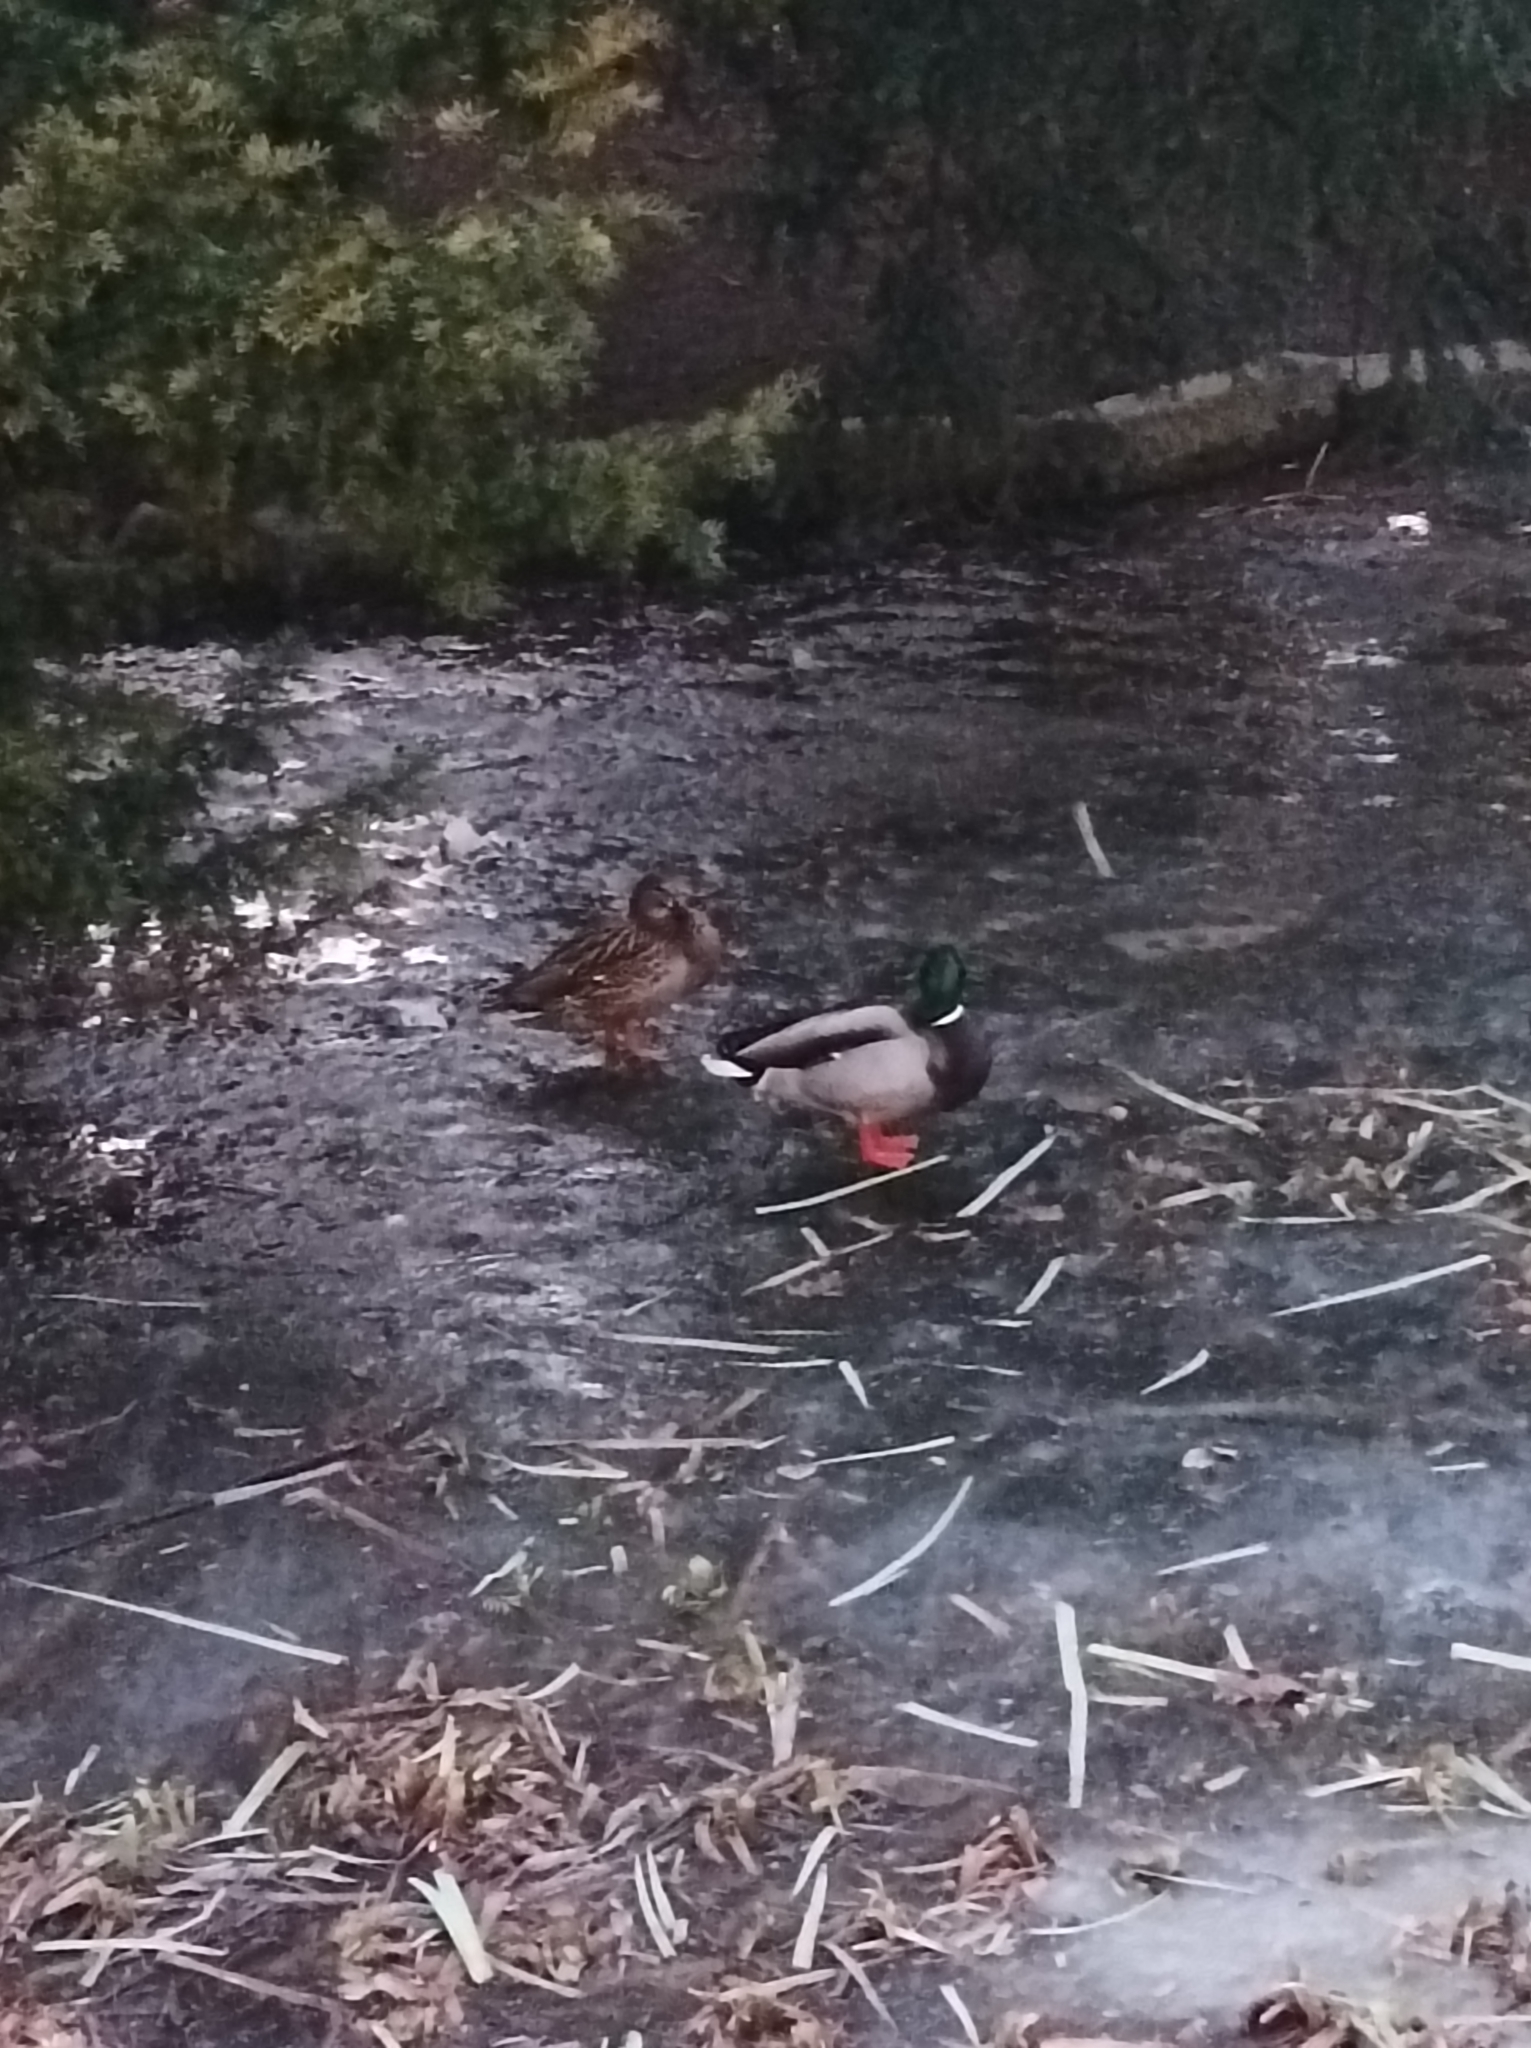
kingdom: Animalia
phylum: Chordata
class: Aves
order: Anseriformes
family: Anatidae
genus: Anas
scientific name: Anas platyrhynchos
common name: Mallard
